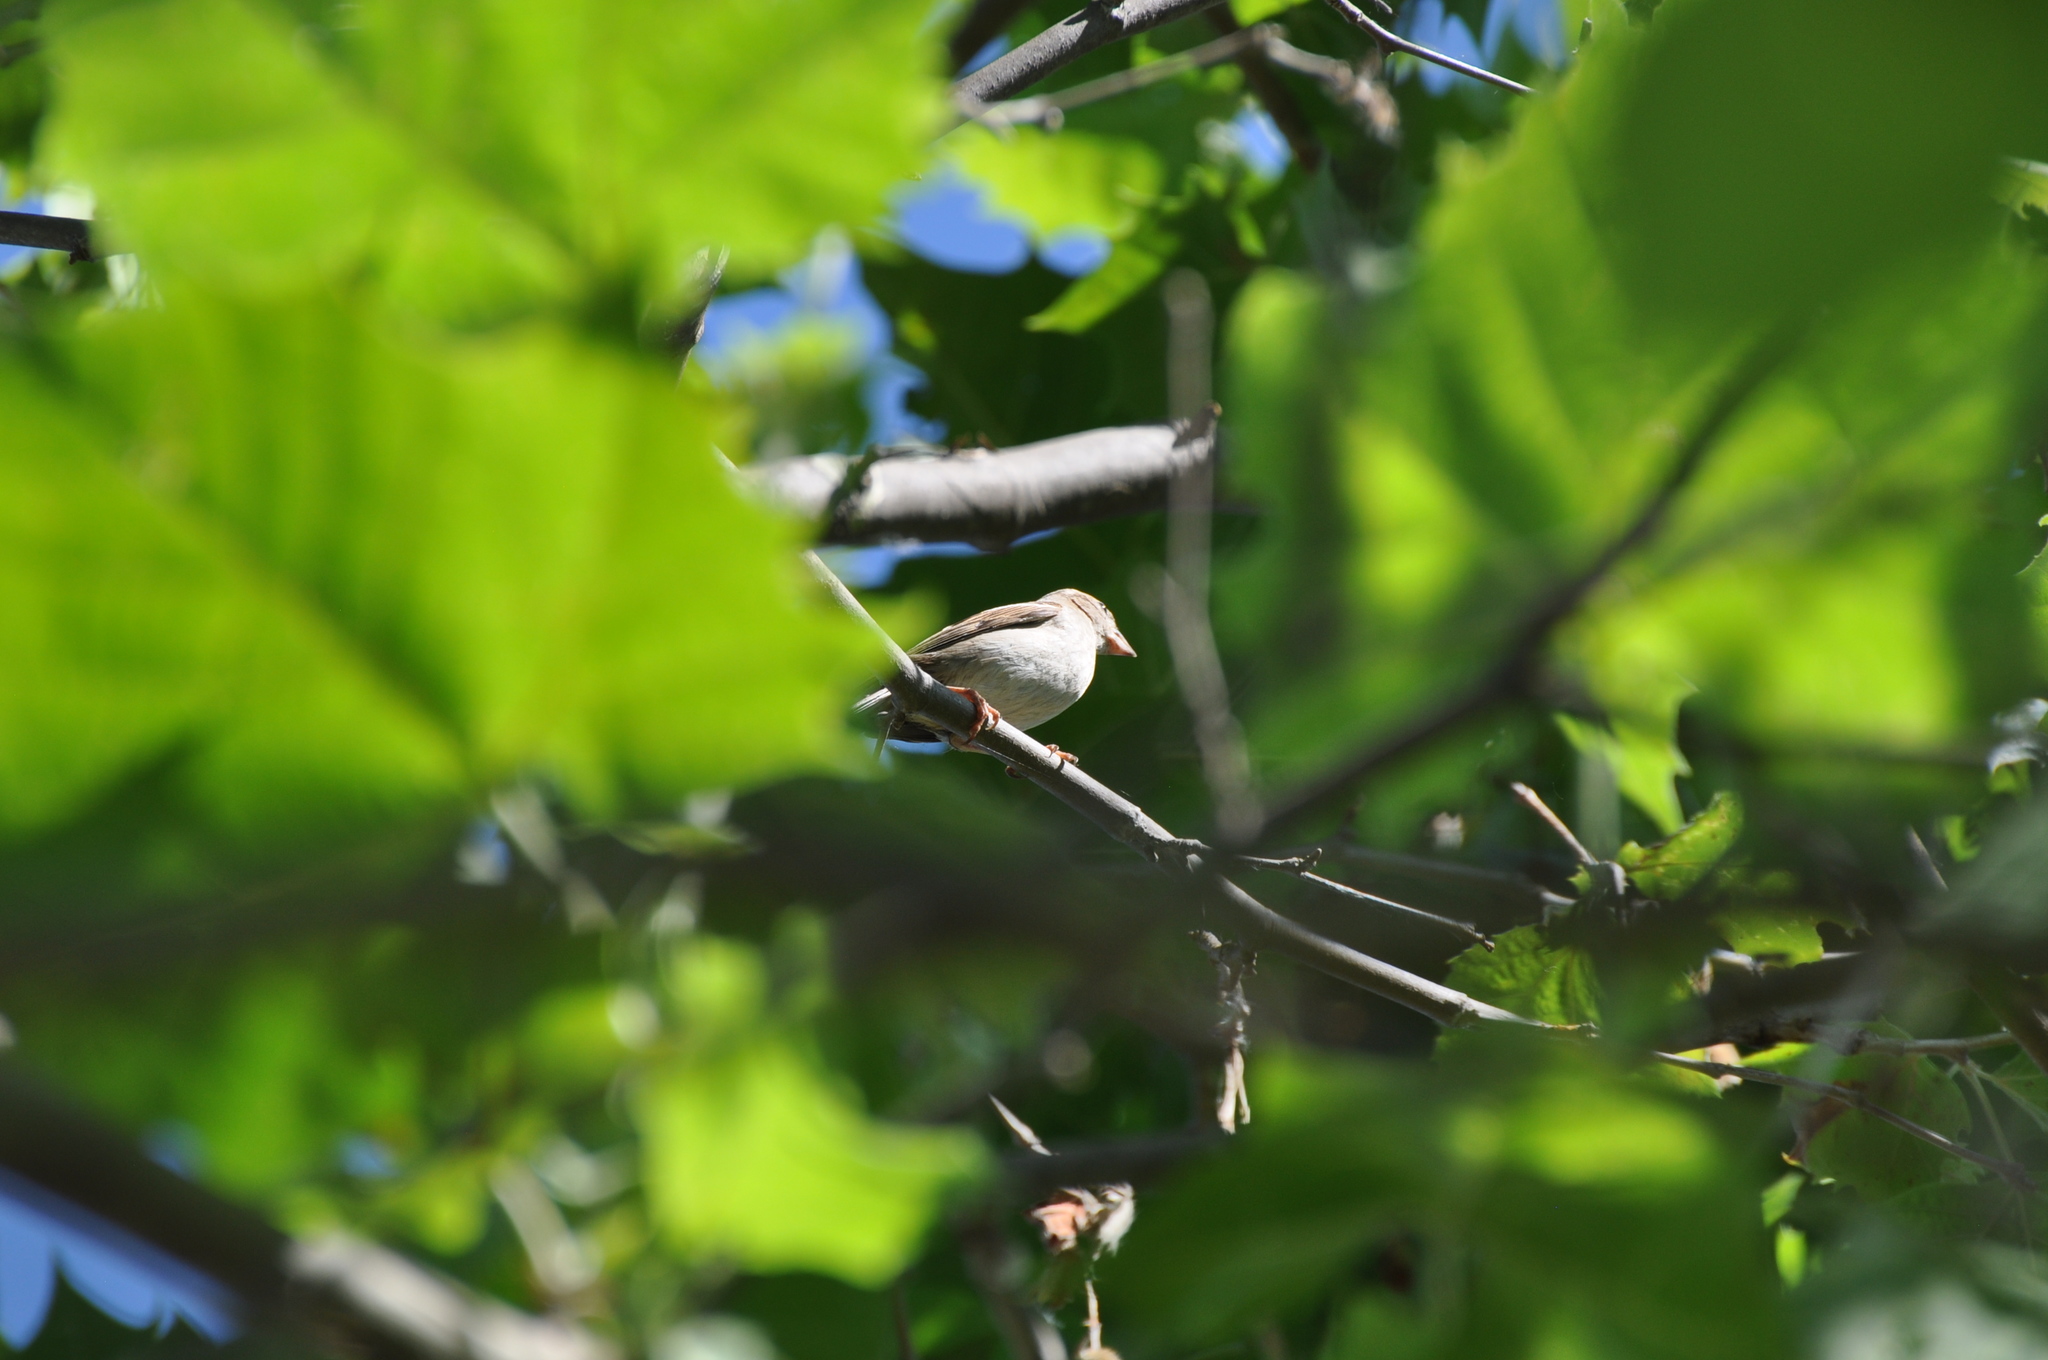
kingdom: Animalia
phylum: Chordata
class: Aves
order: Passeriformes
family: Passeridae
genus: Passer
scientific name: Passer domesticus
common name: House sparrow
